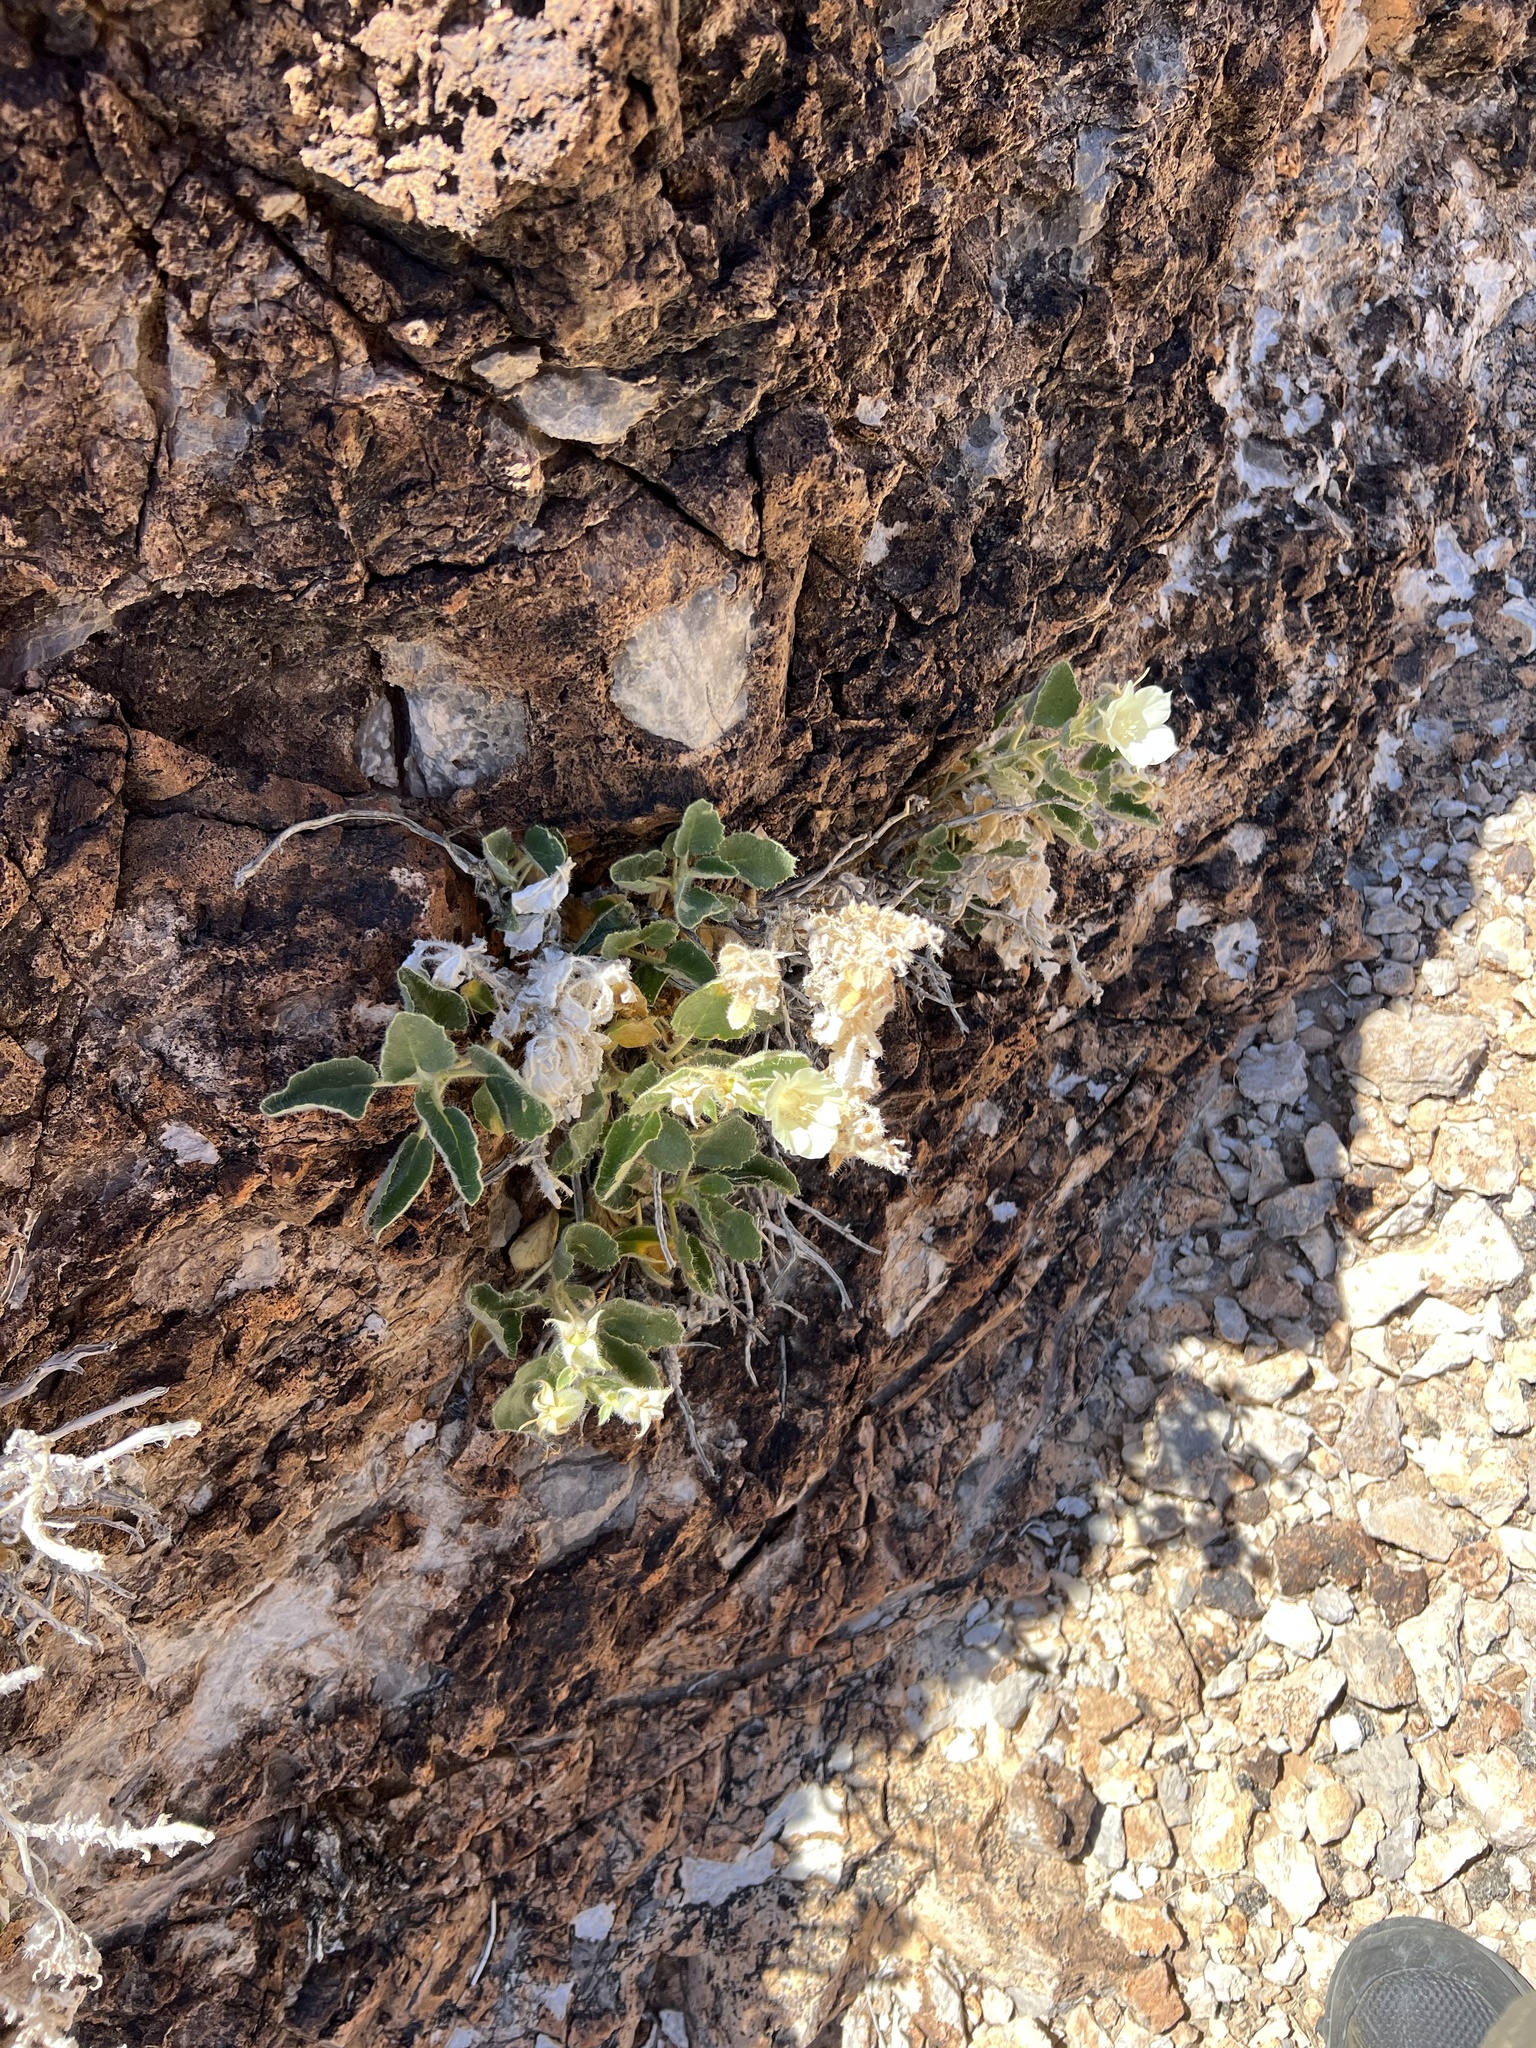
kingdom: Plantae
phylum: Tracheophyta
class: Magnoliopsida
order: Cornales
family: Loasaceae
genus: Eucnide
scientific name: Eucnide urens
